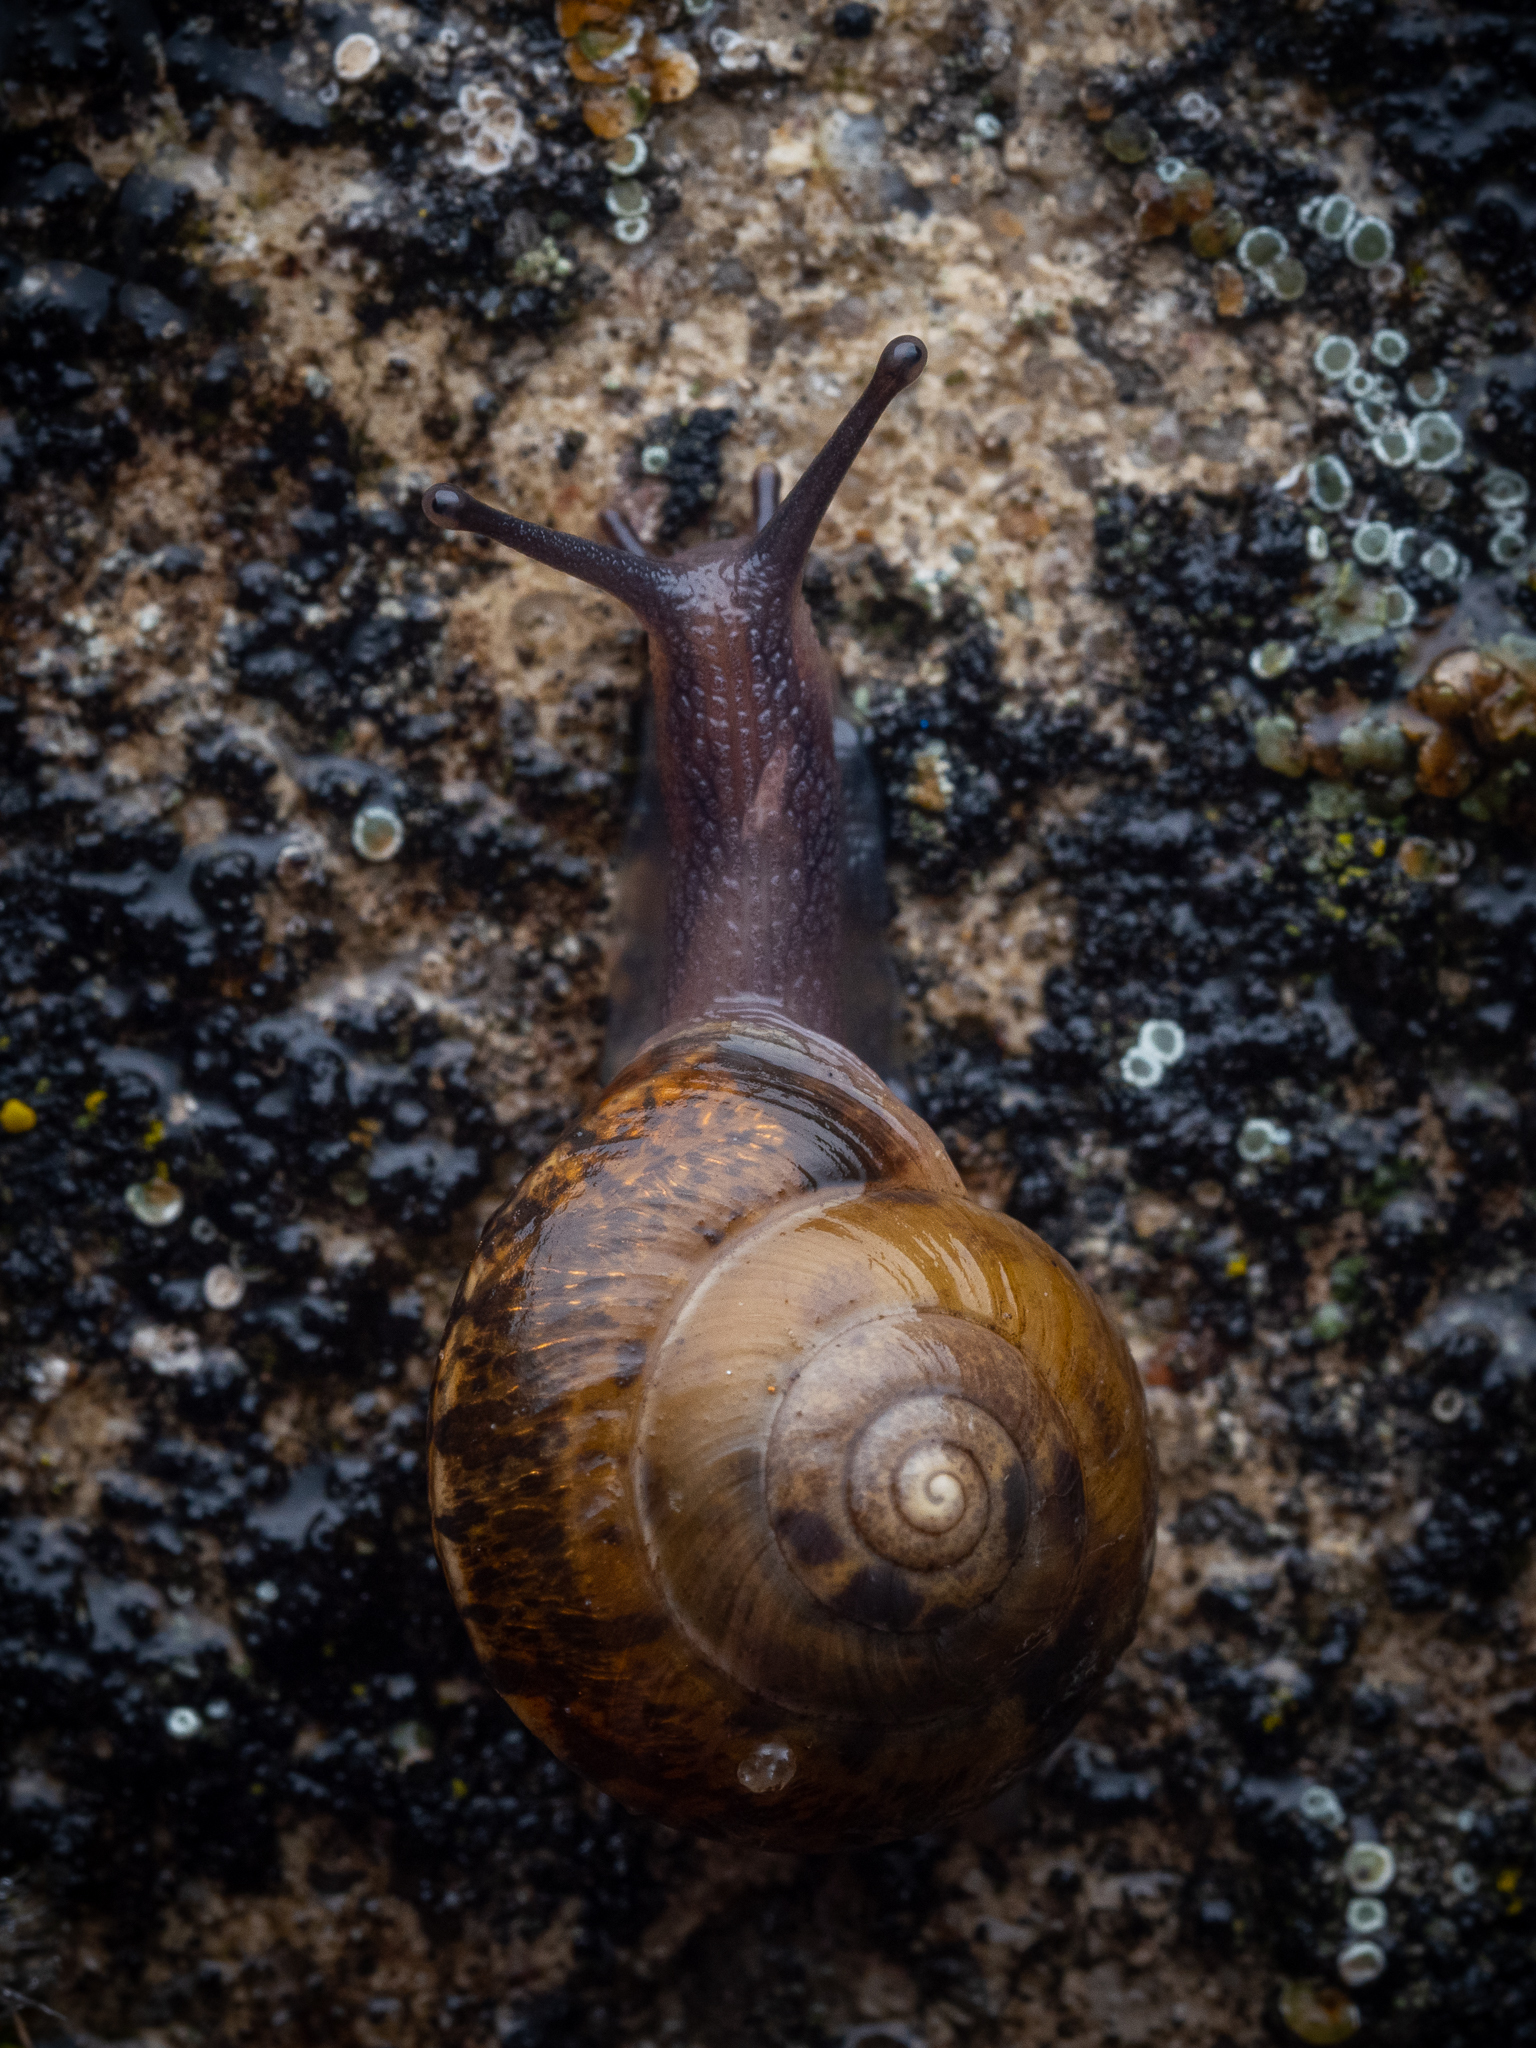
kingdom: Animalia
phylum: Mollusca
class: Gastropoda
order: Stylommatophora
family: Hygromiidae
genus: Hygromia
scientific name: Hygromia cinctella
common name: Girdled snail
